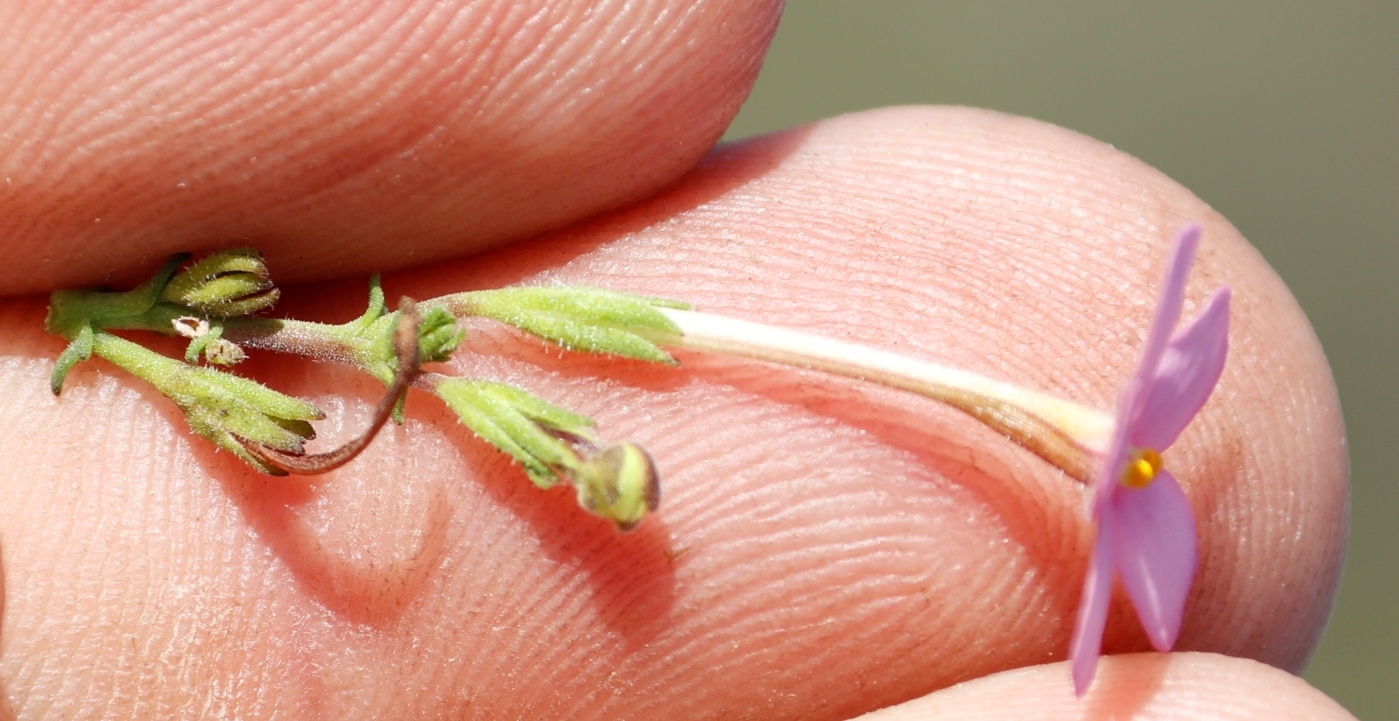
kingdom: Plantae
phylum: Tracheophyta
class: Magnoliopsida
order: Lamiales
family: Scrophulariaceae
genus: Chaenostoma
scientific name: Chaenostoma aethiopicum
